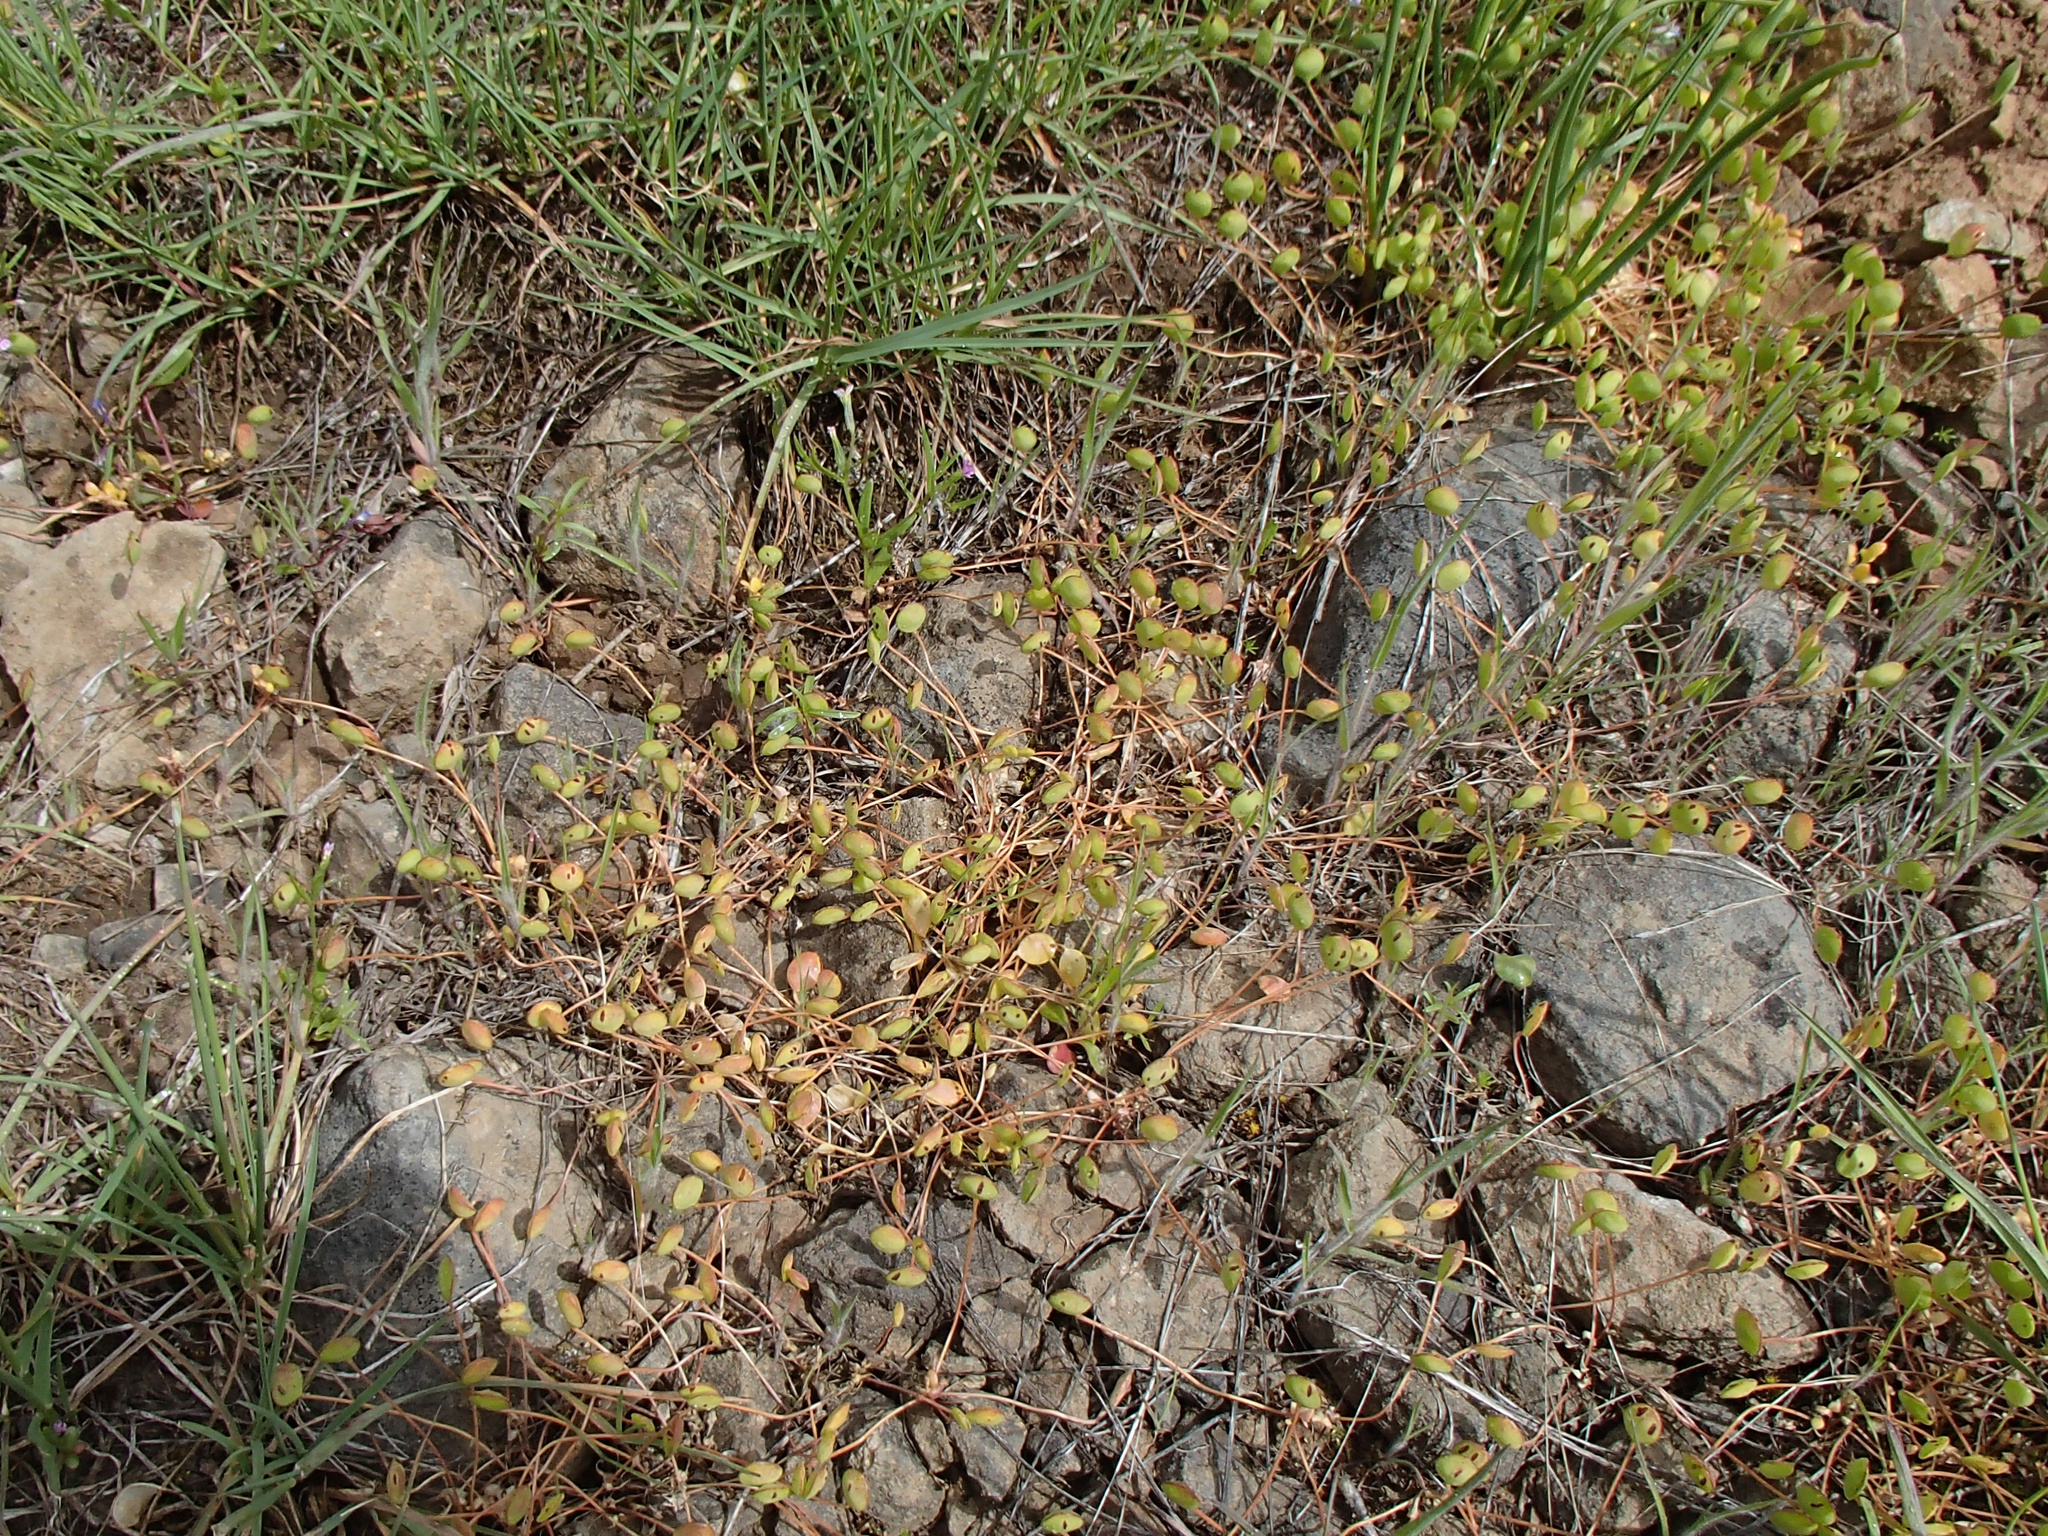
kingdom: Plantae
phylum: Tracheophyta
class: Magnoliopsida
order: Brassicales
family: Brassicaceae
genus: Idahoa
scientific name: Idahoa scapigera
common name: Scalepod
